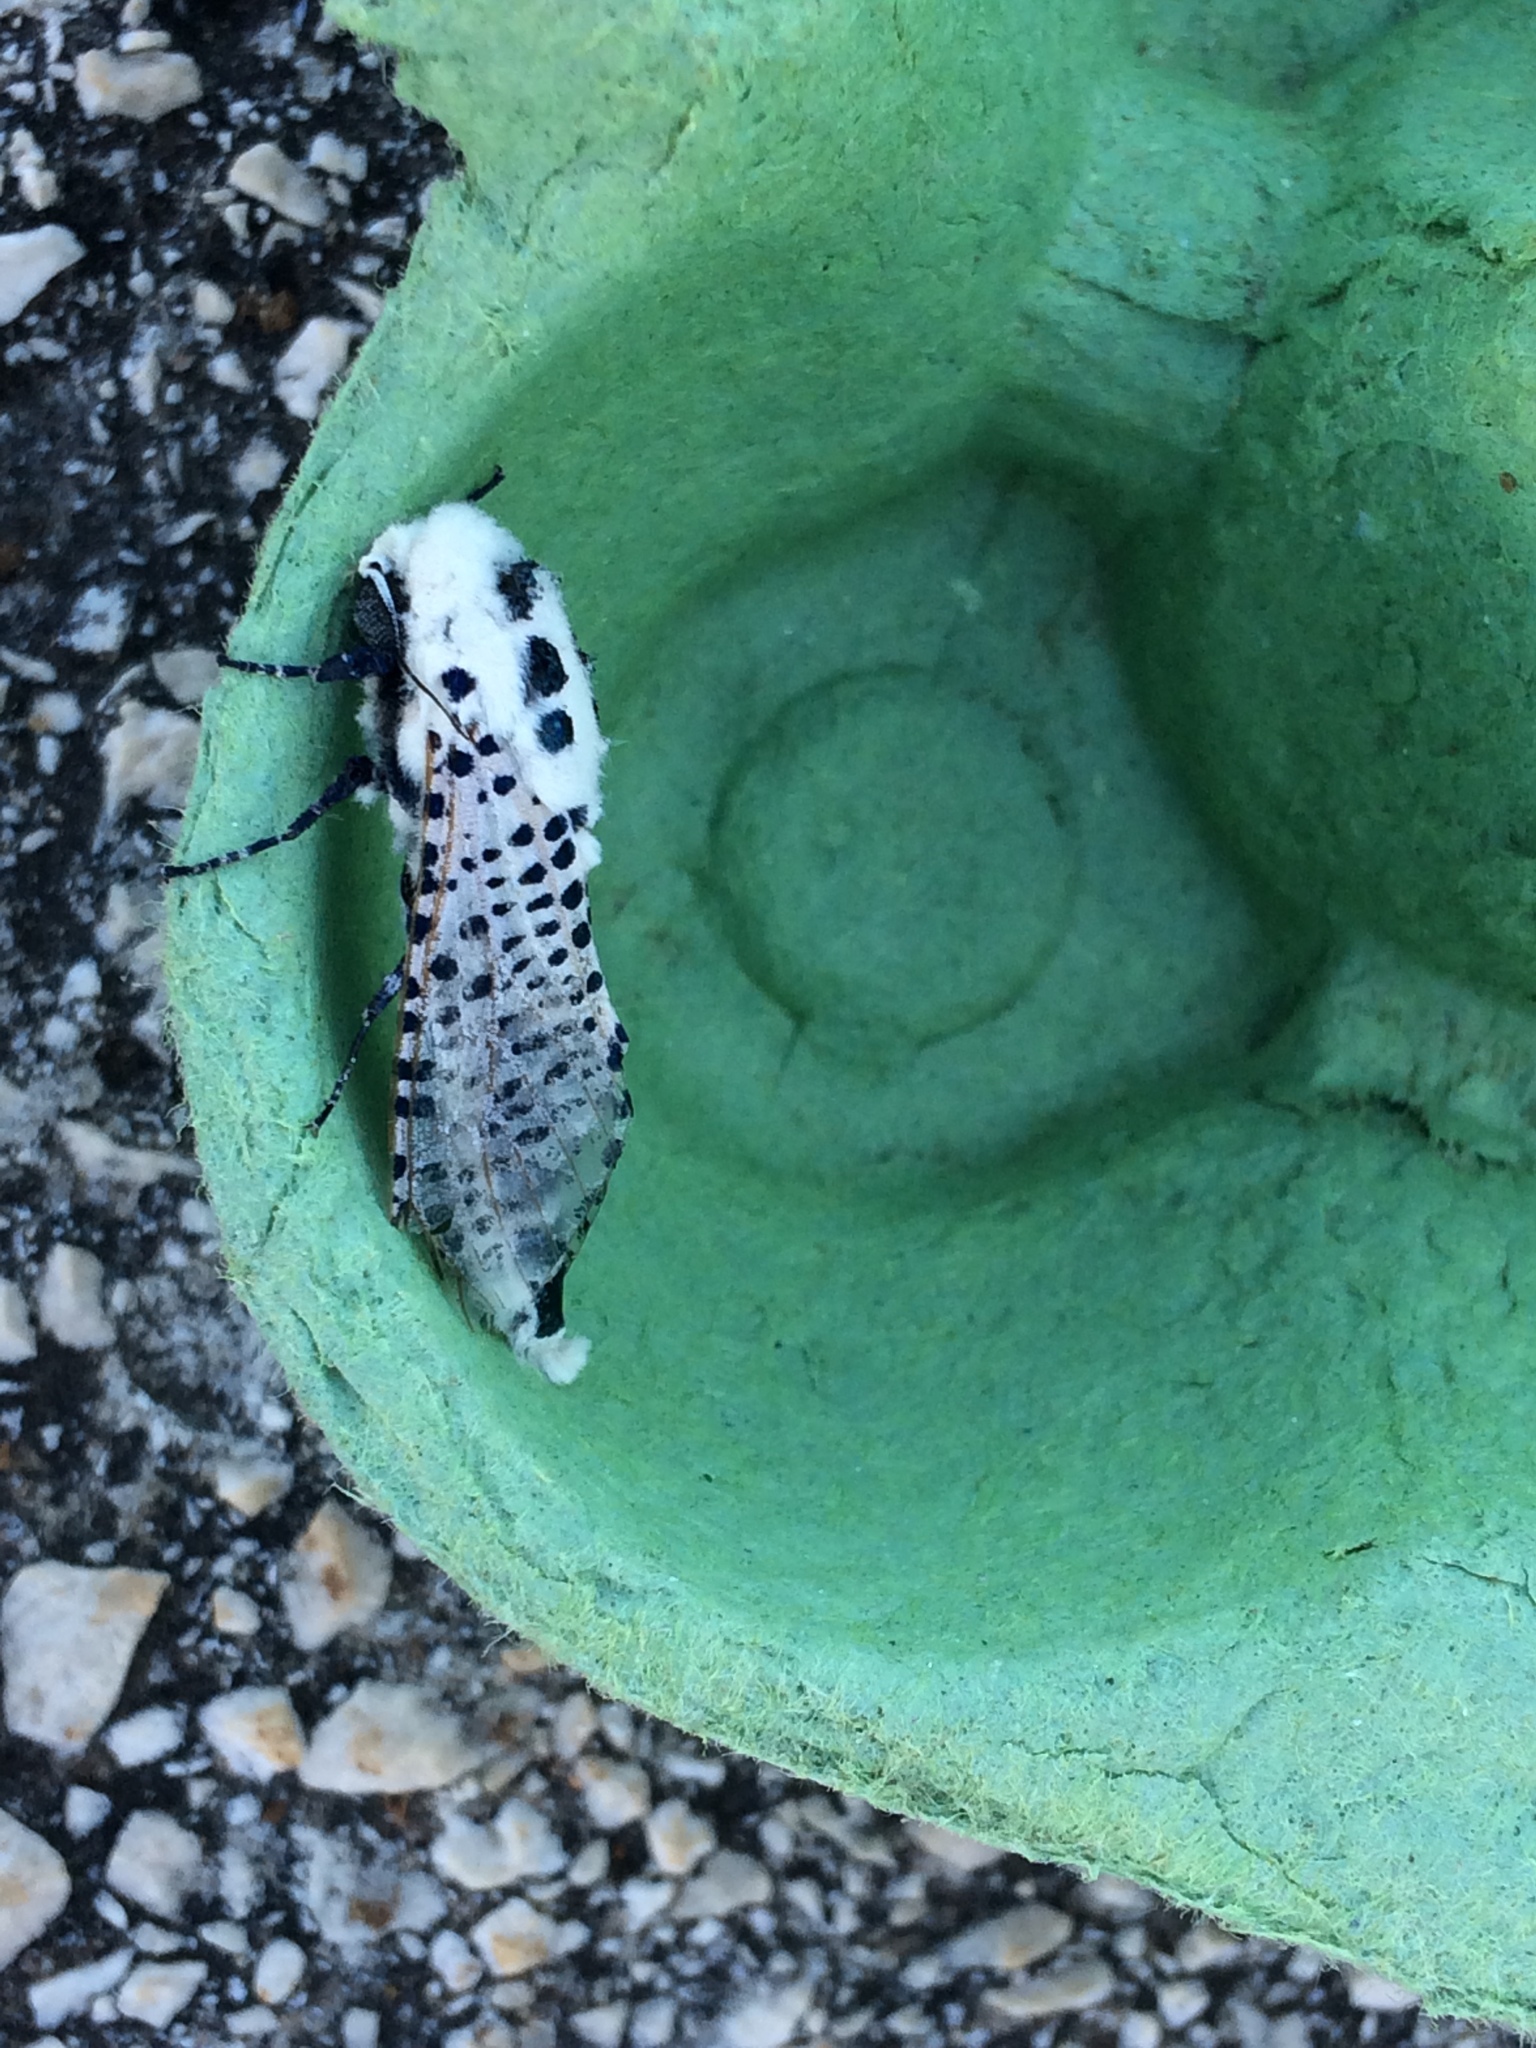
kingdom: Animalia
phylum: Arthropoda
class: Insecta
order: Lepidoptera
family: Cossidae
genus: Zeuzera
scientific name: Zeuzera pyrina
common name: Leopard moth
